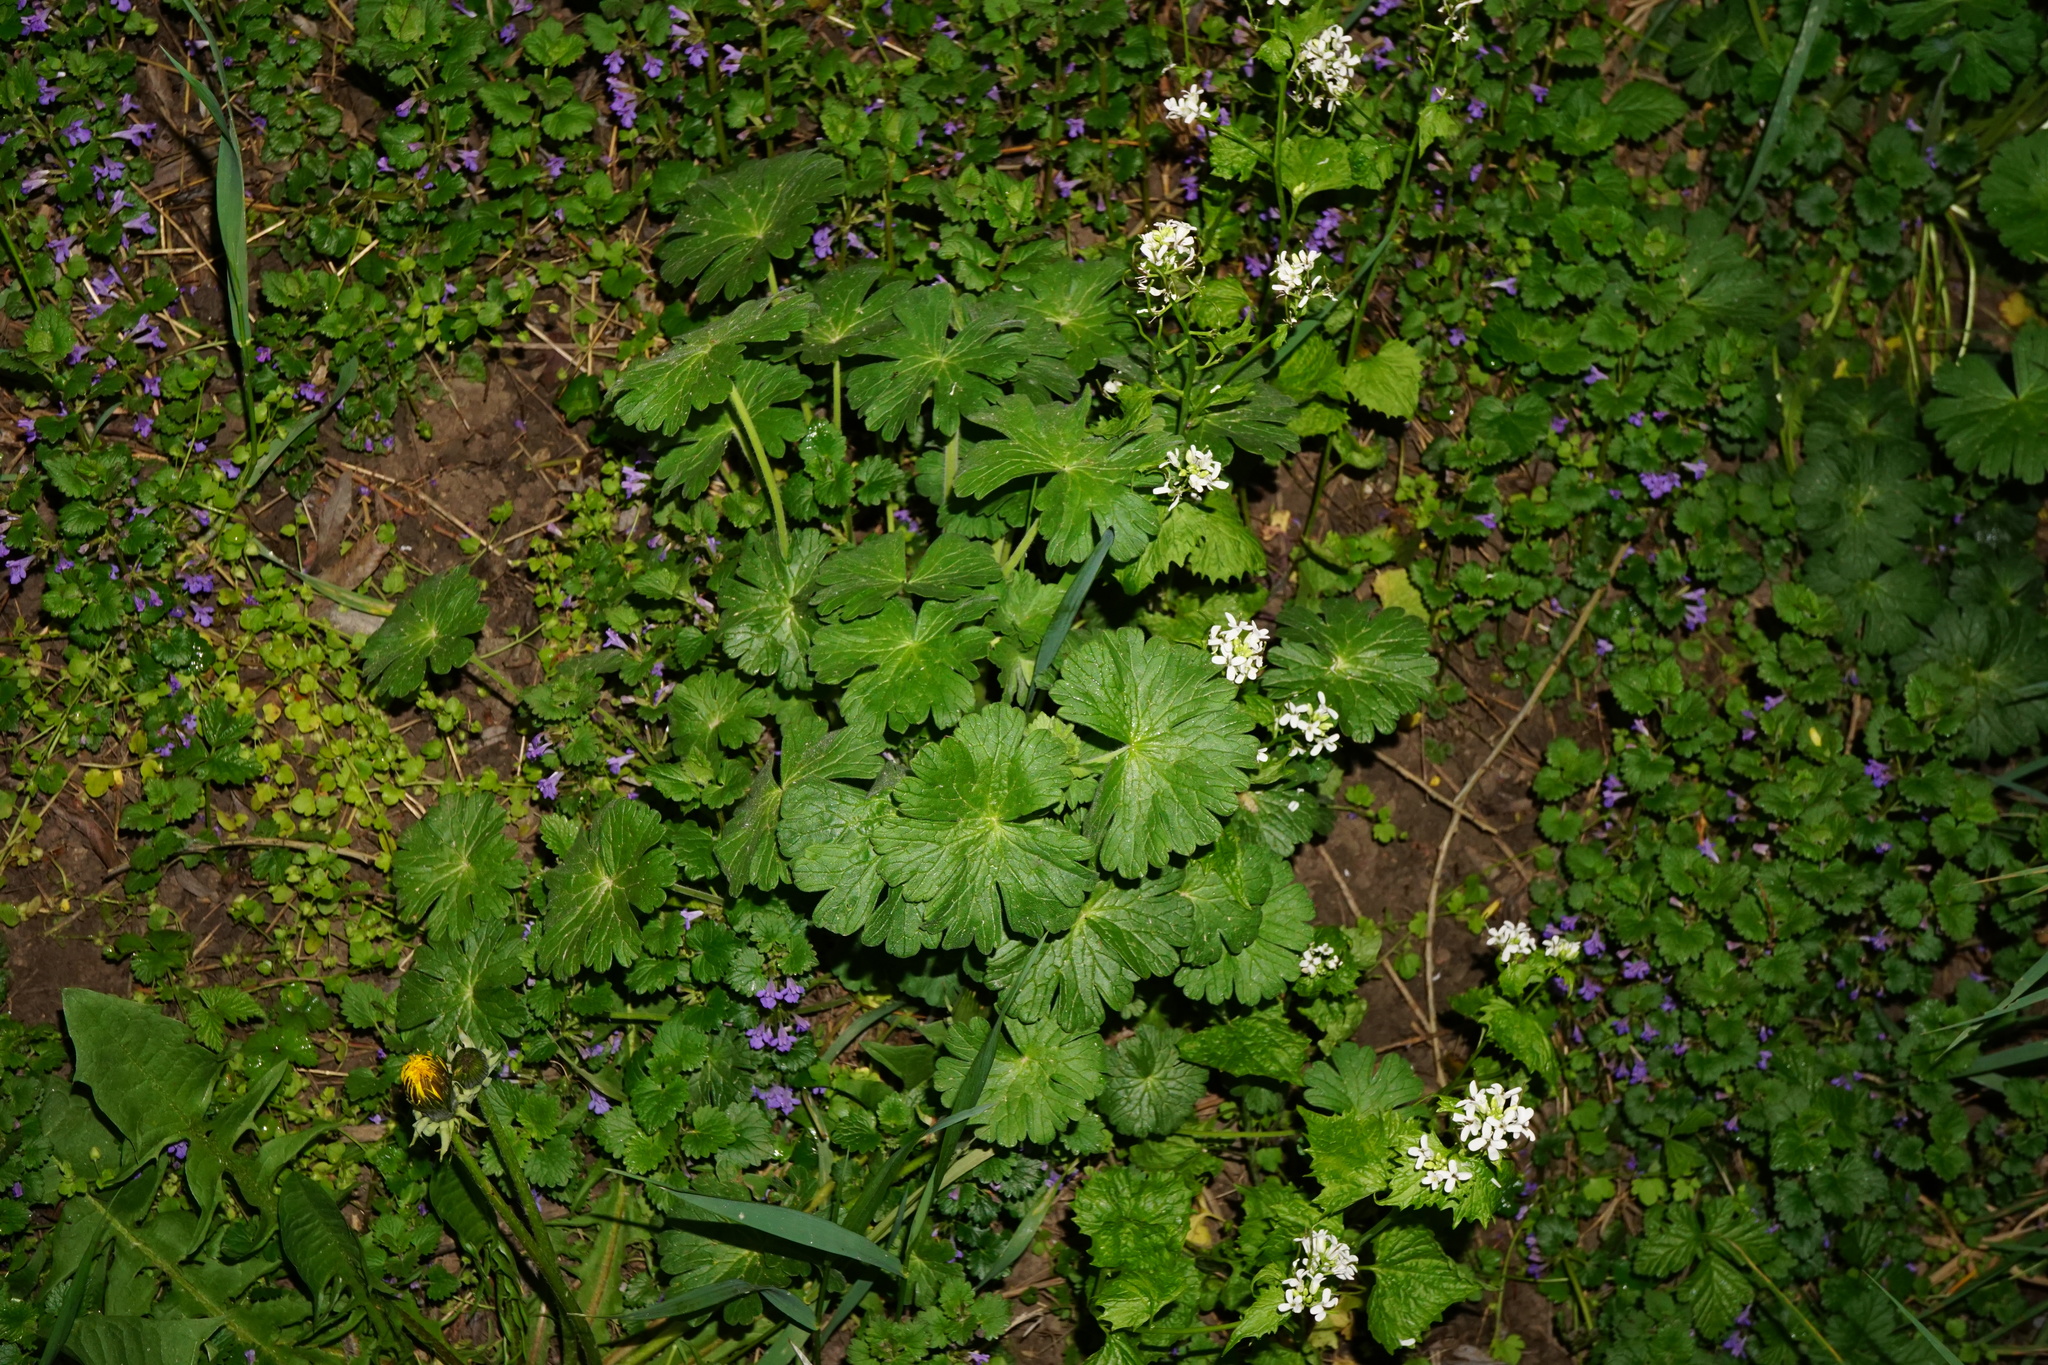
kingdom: Plantae
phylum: Tracheophyta
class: Magnoliopsida
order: Geraniales
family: Geraniaceae
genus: Geranium
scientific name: Geranium pyrenaicum
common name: Hedgerow crane's-bill
